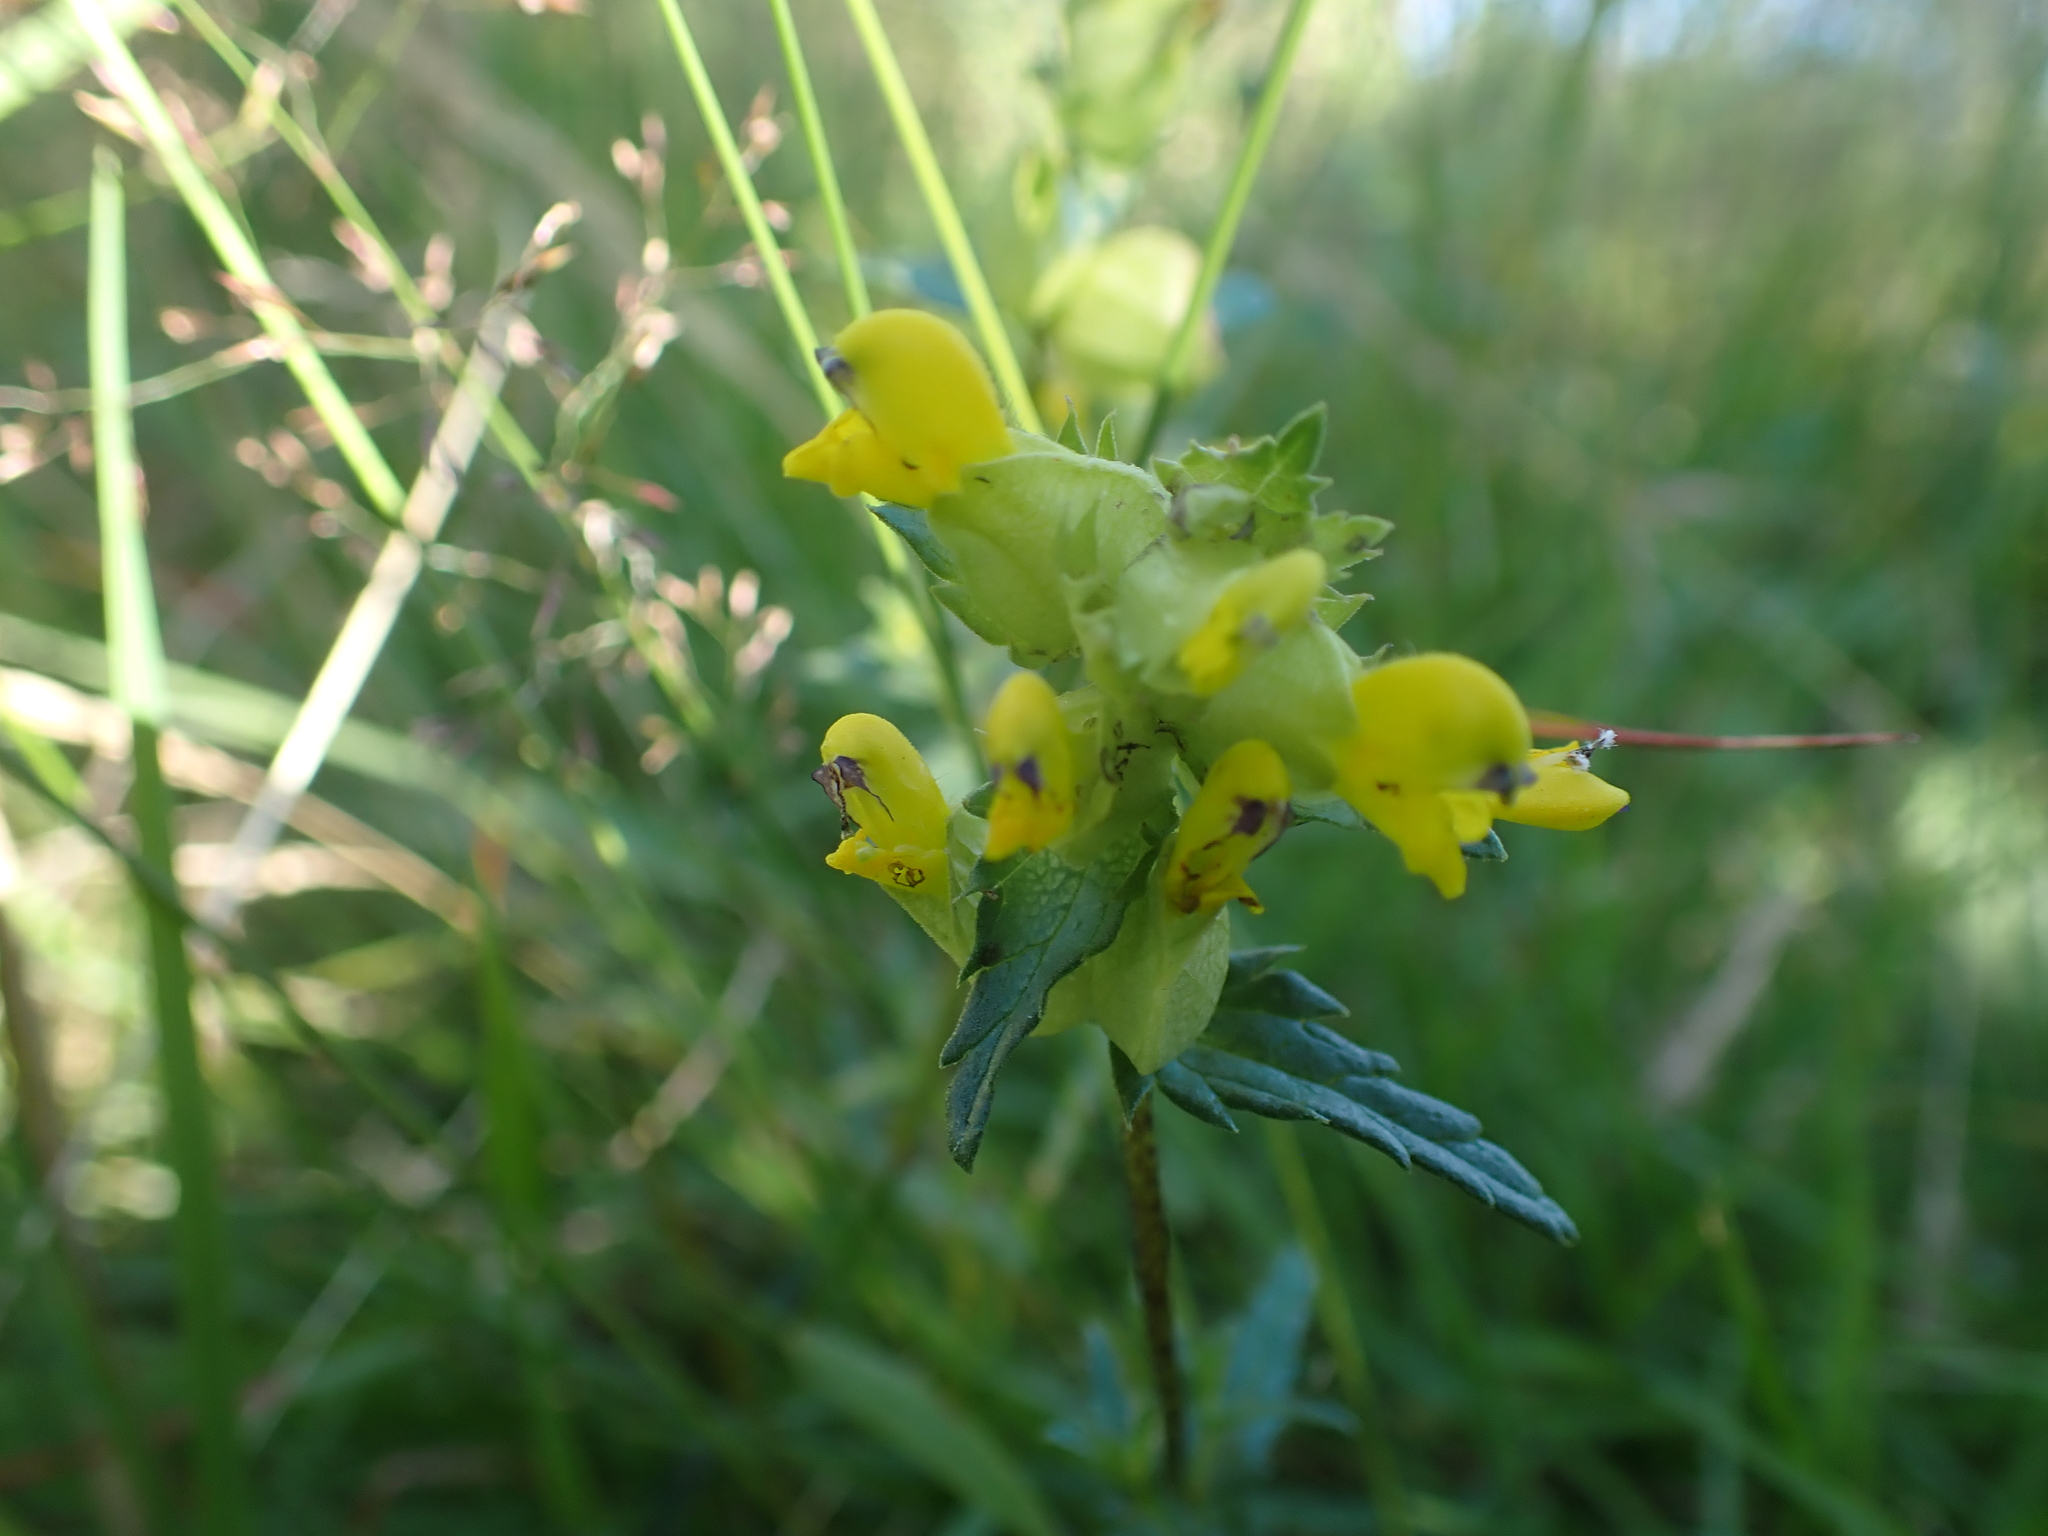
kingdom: Plantae
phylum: Tracheophyta
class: Magnoliopsida
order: Lamiales
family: Orobanchaceae
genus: Rhinanthus
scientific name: Rhinanthus minor
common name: Yellow-rattle
